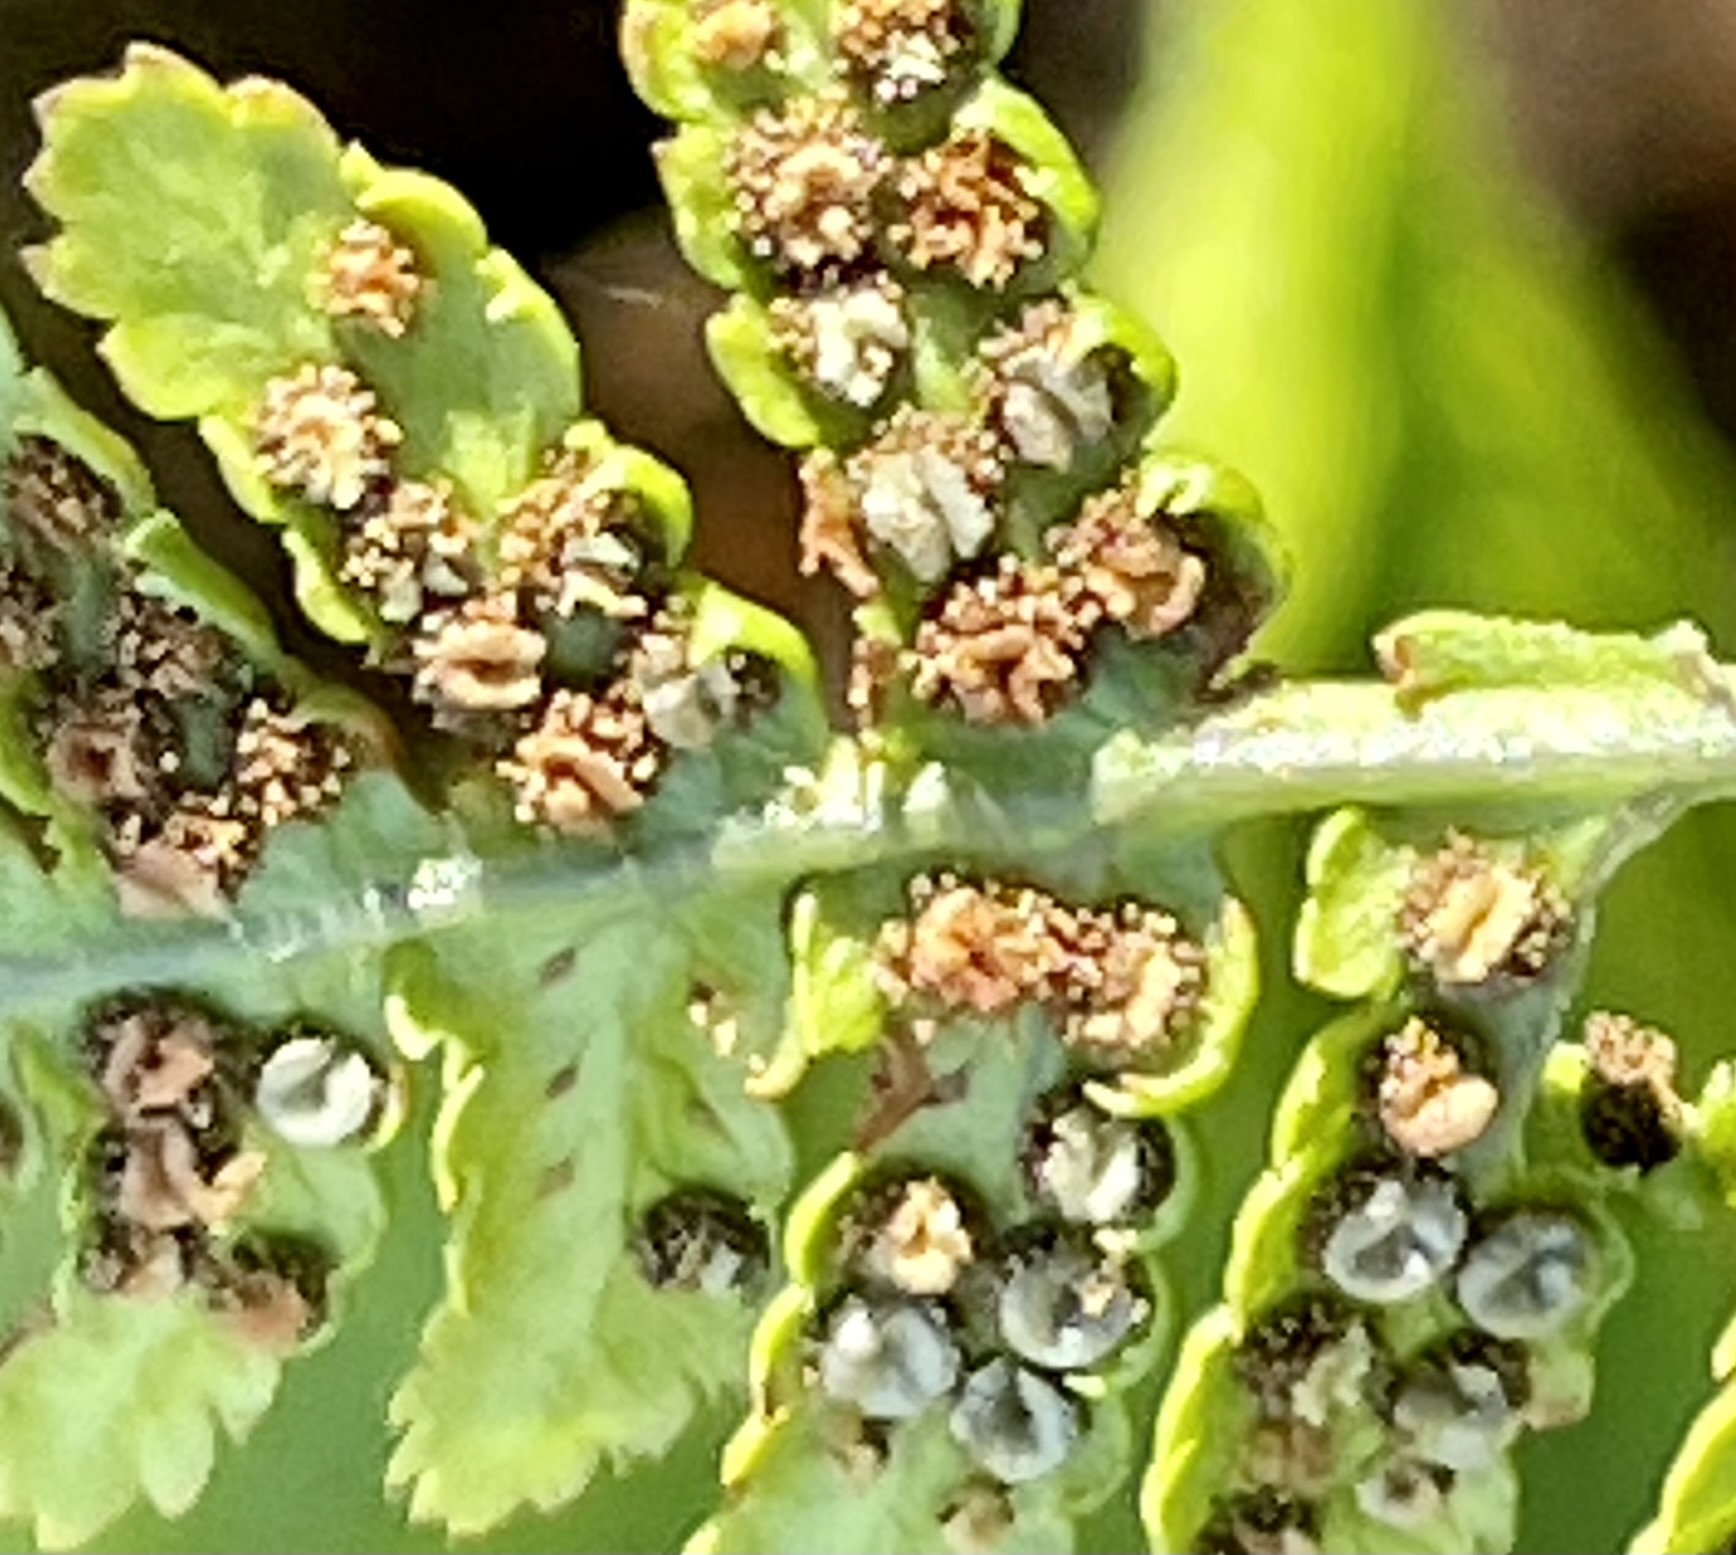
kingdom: Plantae
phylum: Tracheophyta
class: Polypodiopsida
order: Polypodiales
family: Dryopteridaceae
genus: Dryopteris
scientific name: Dryopteris arguta
